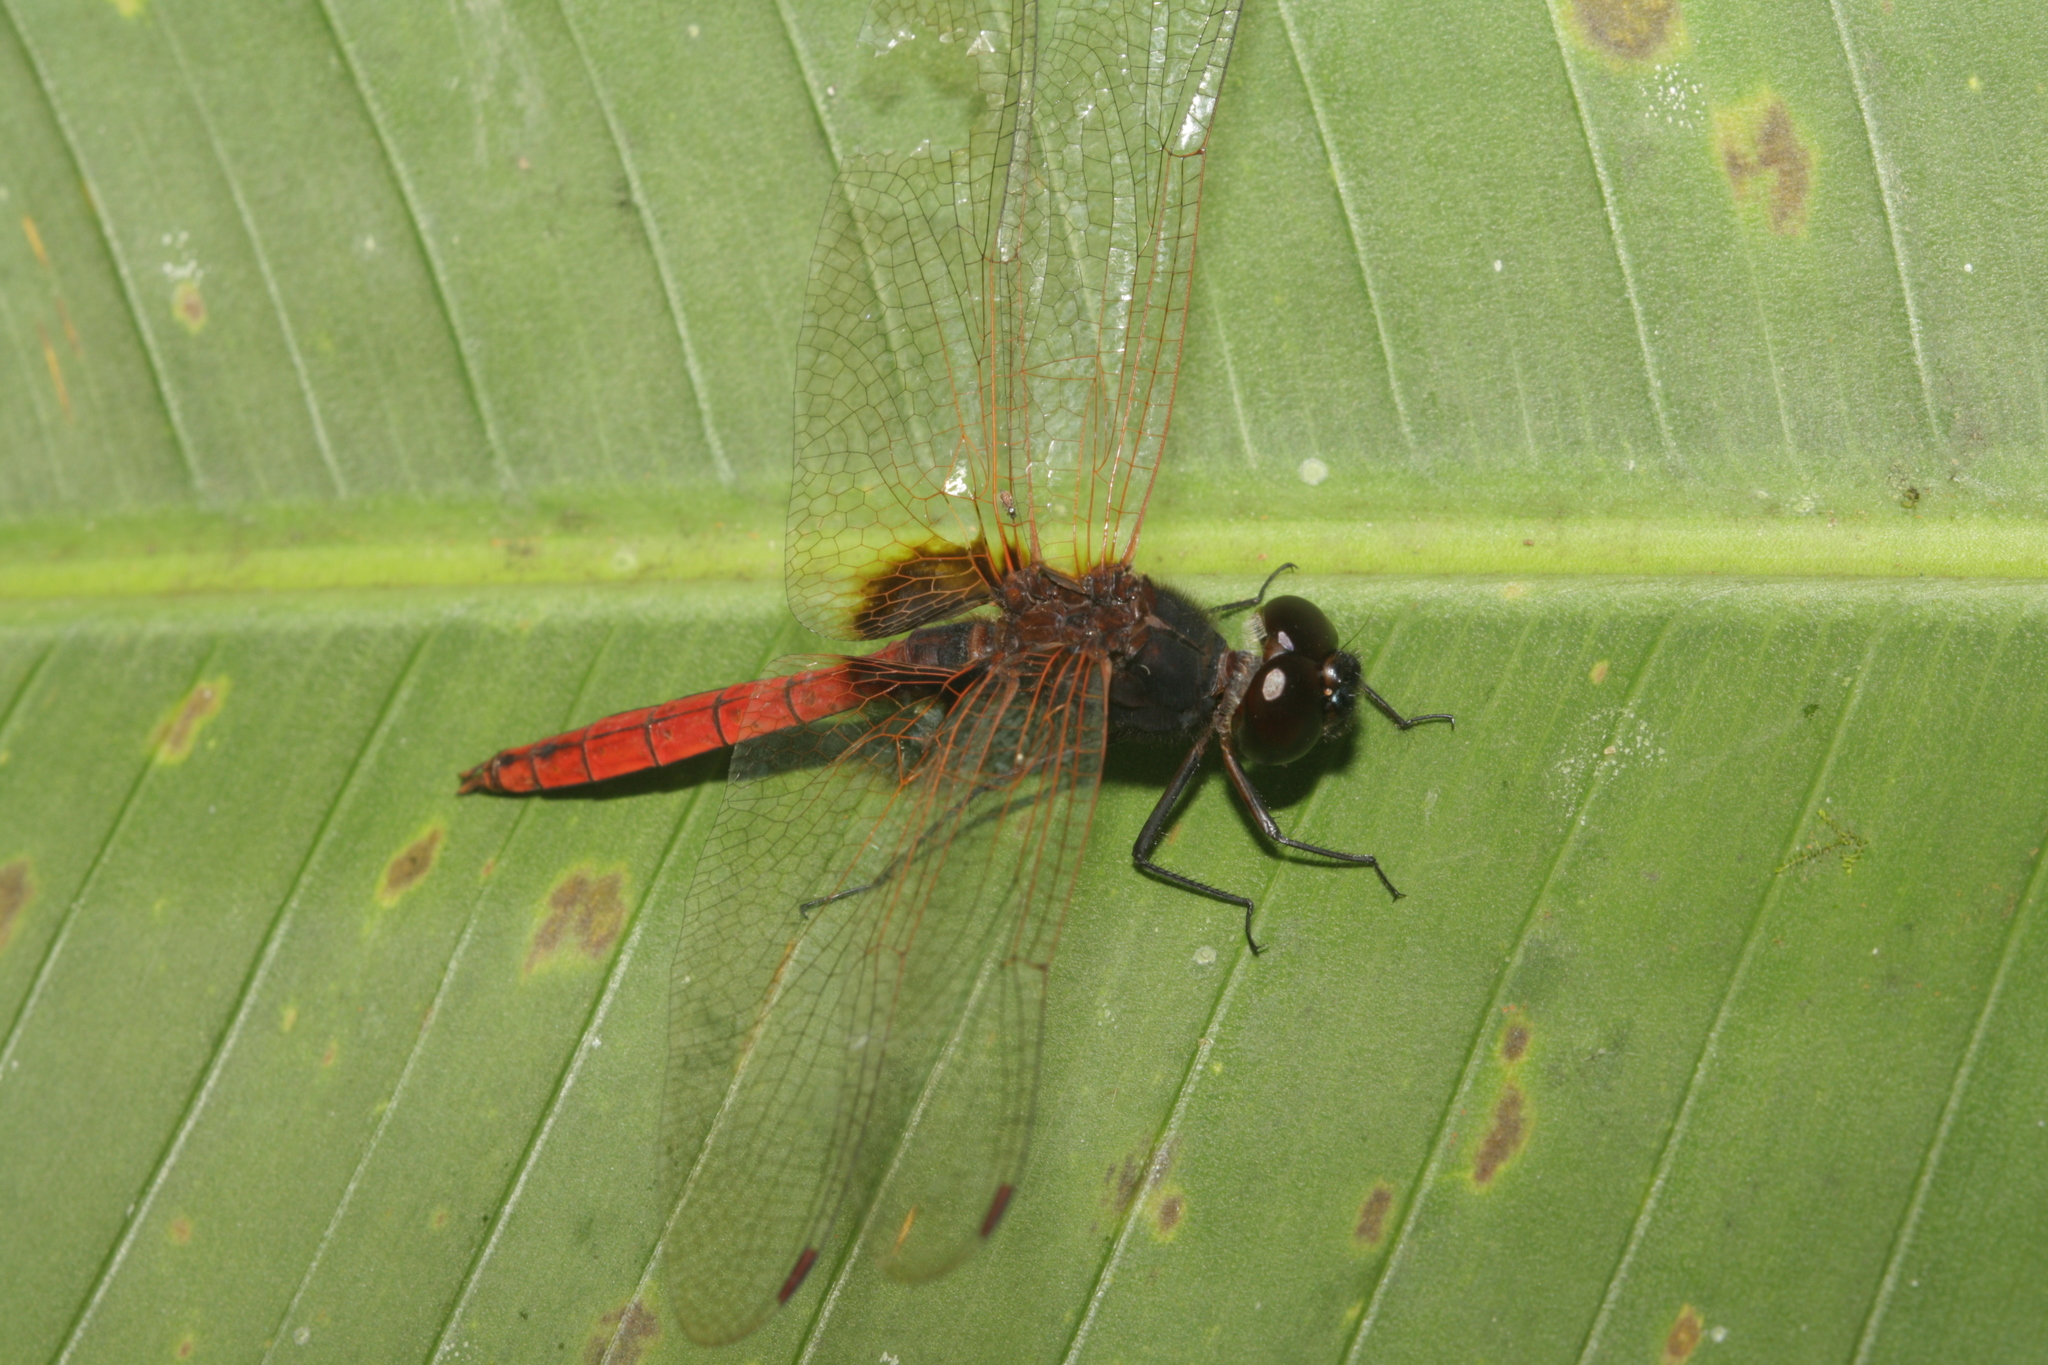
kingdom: Animalia
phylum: Arthropoda
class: Insecta
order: Odonata
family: Libellulidae
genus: Tauriphila
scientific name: Tauriphila australis
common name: Garnet glider
